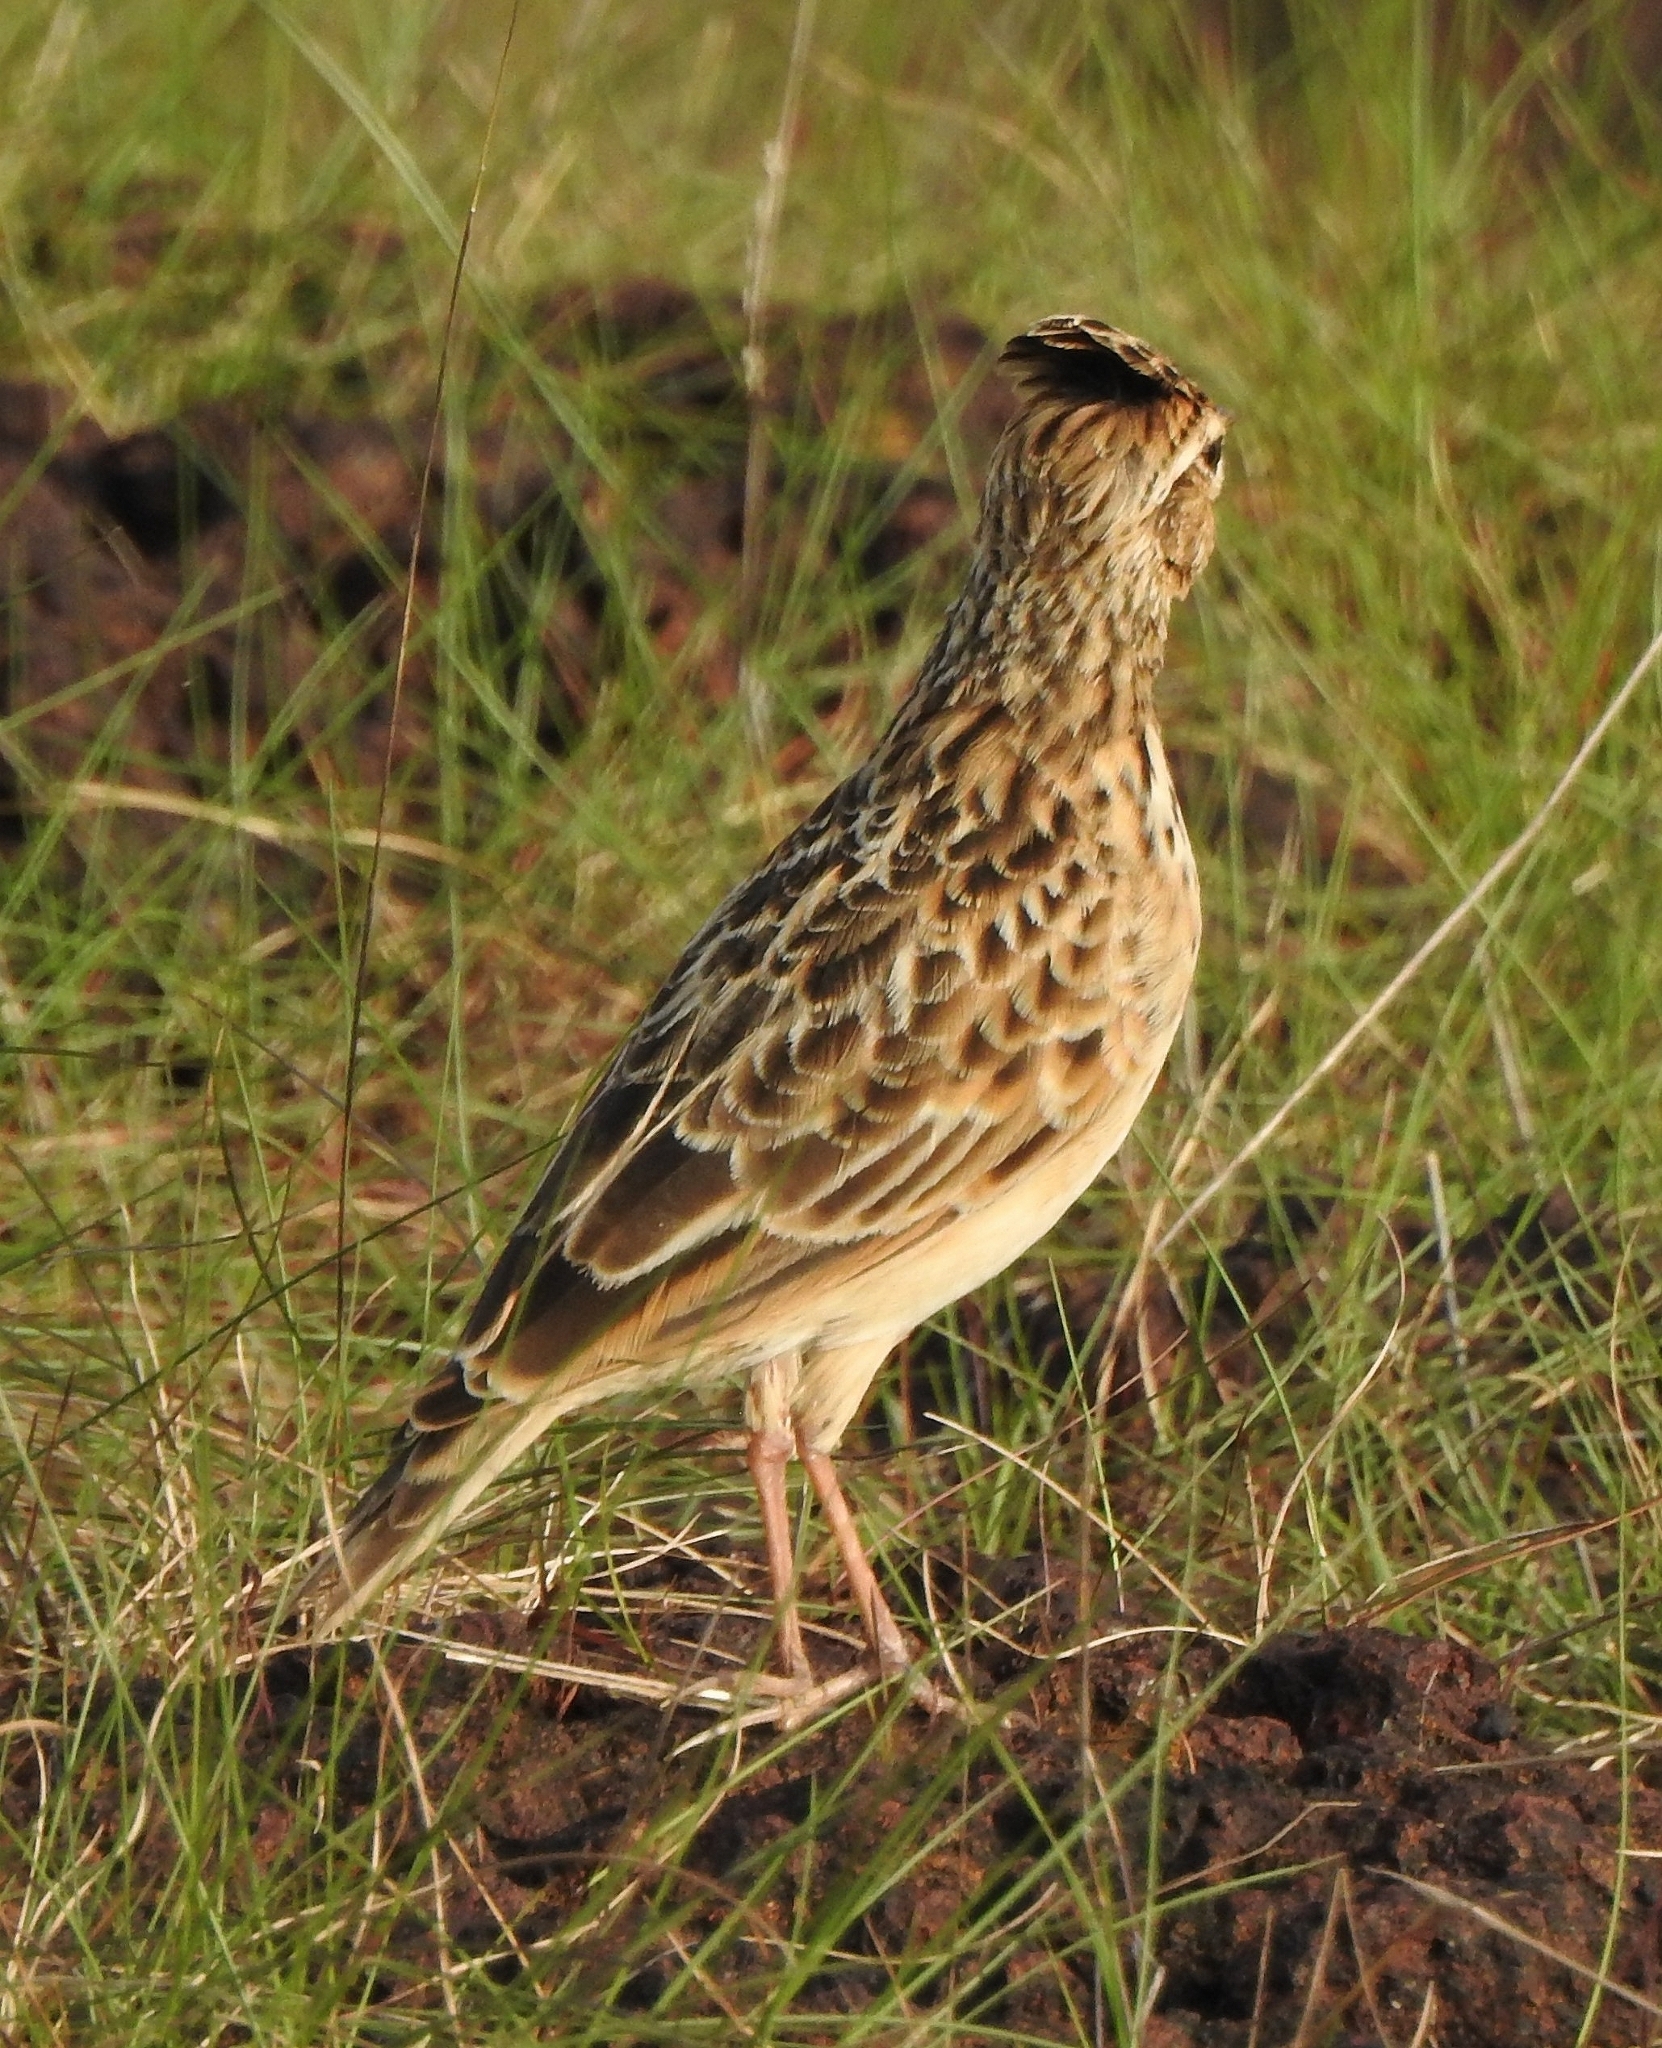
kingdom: Animalia
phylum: Chordata
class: Aves
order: Passeriformes
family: Alaudidae
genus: Alauda
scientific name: Alauda gulgula
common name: Oriental skylark
